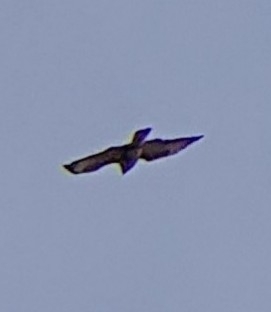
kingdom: Animalia
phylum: Chordata
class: Aves
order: Accipitriformes
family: Accipitridae
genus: Buteo
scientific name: Buteo buteo
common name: Common buzzard
